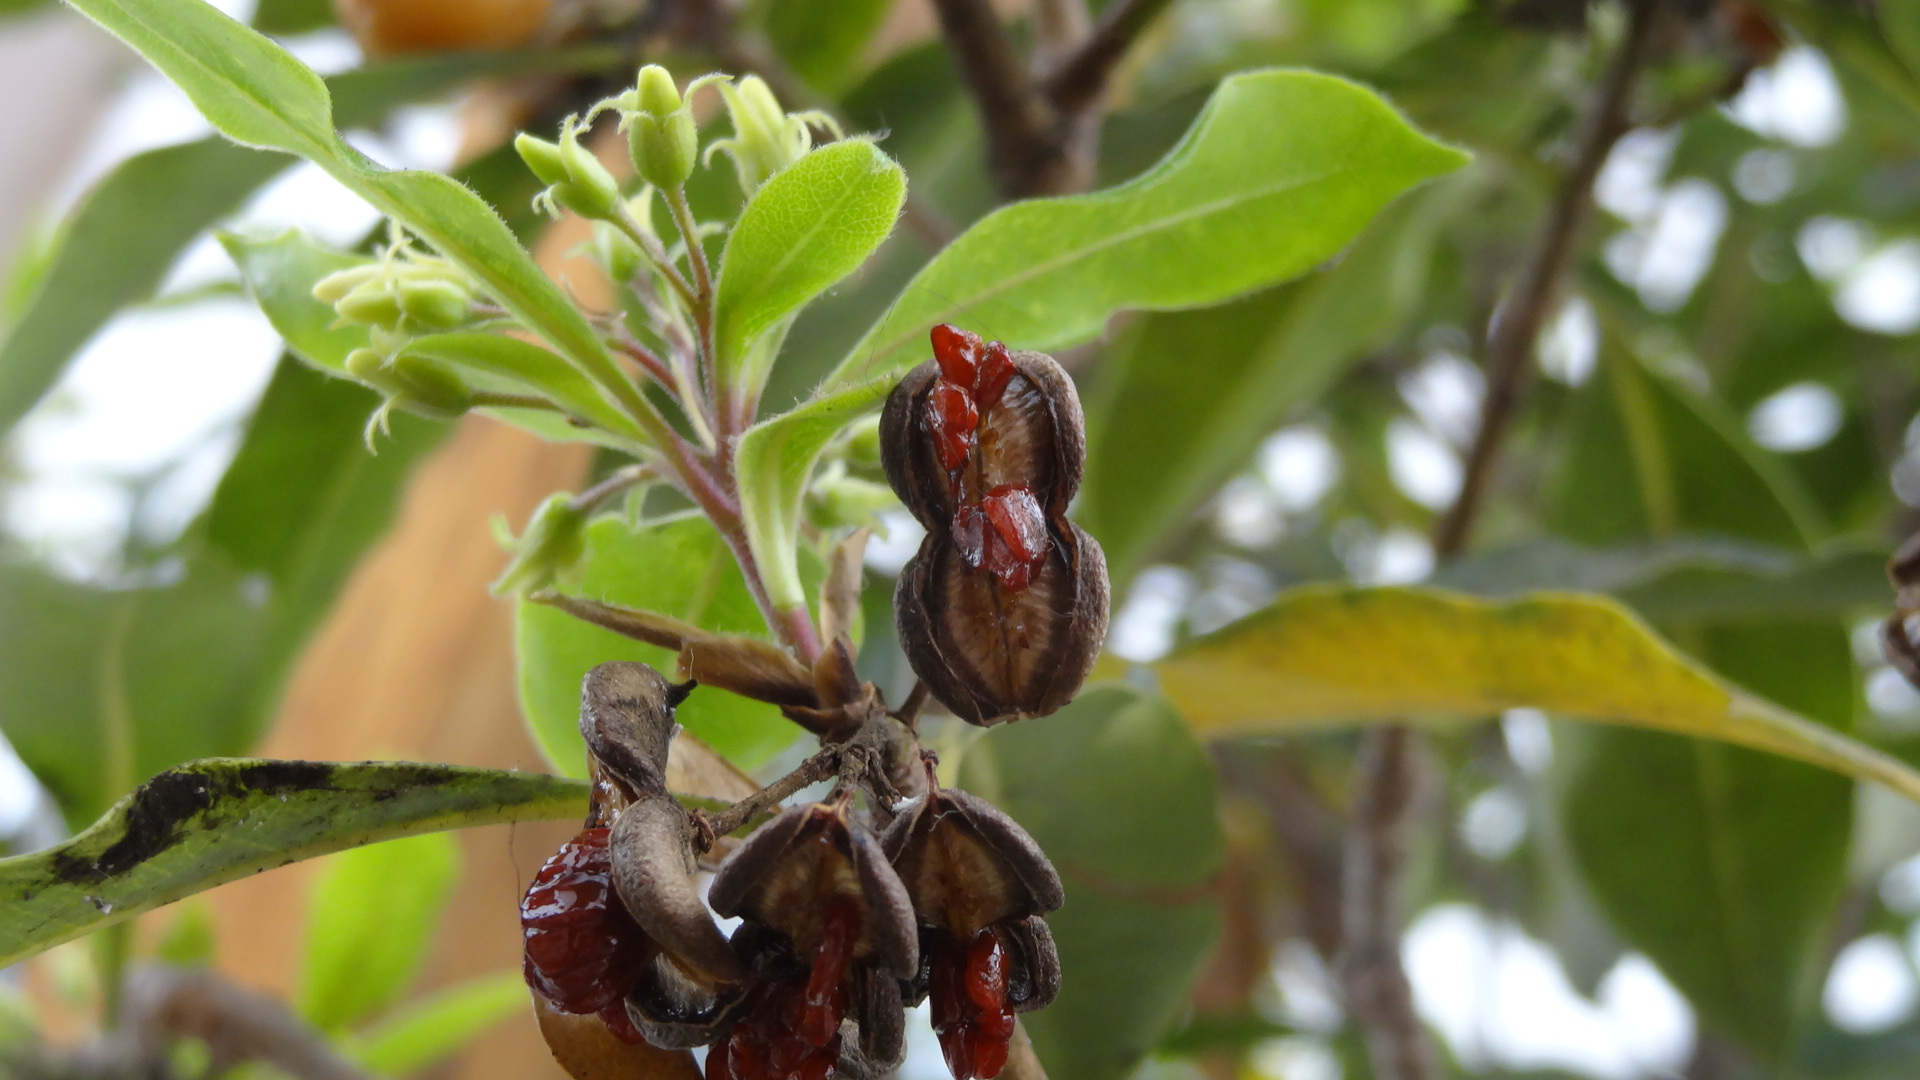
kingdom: Plantae
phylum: Tracheophyta
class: Magnoliopsida
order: Apiales
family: Pittosporaceae
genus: Pittosporum
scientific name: Pittosporum undulatum
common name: Australian cheesewood
